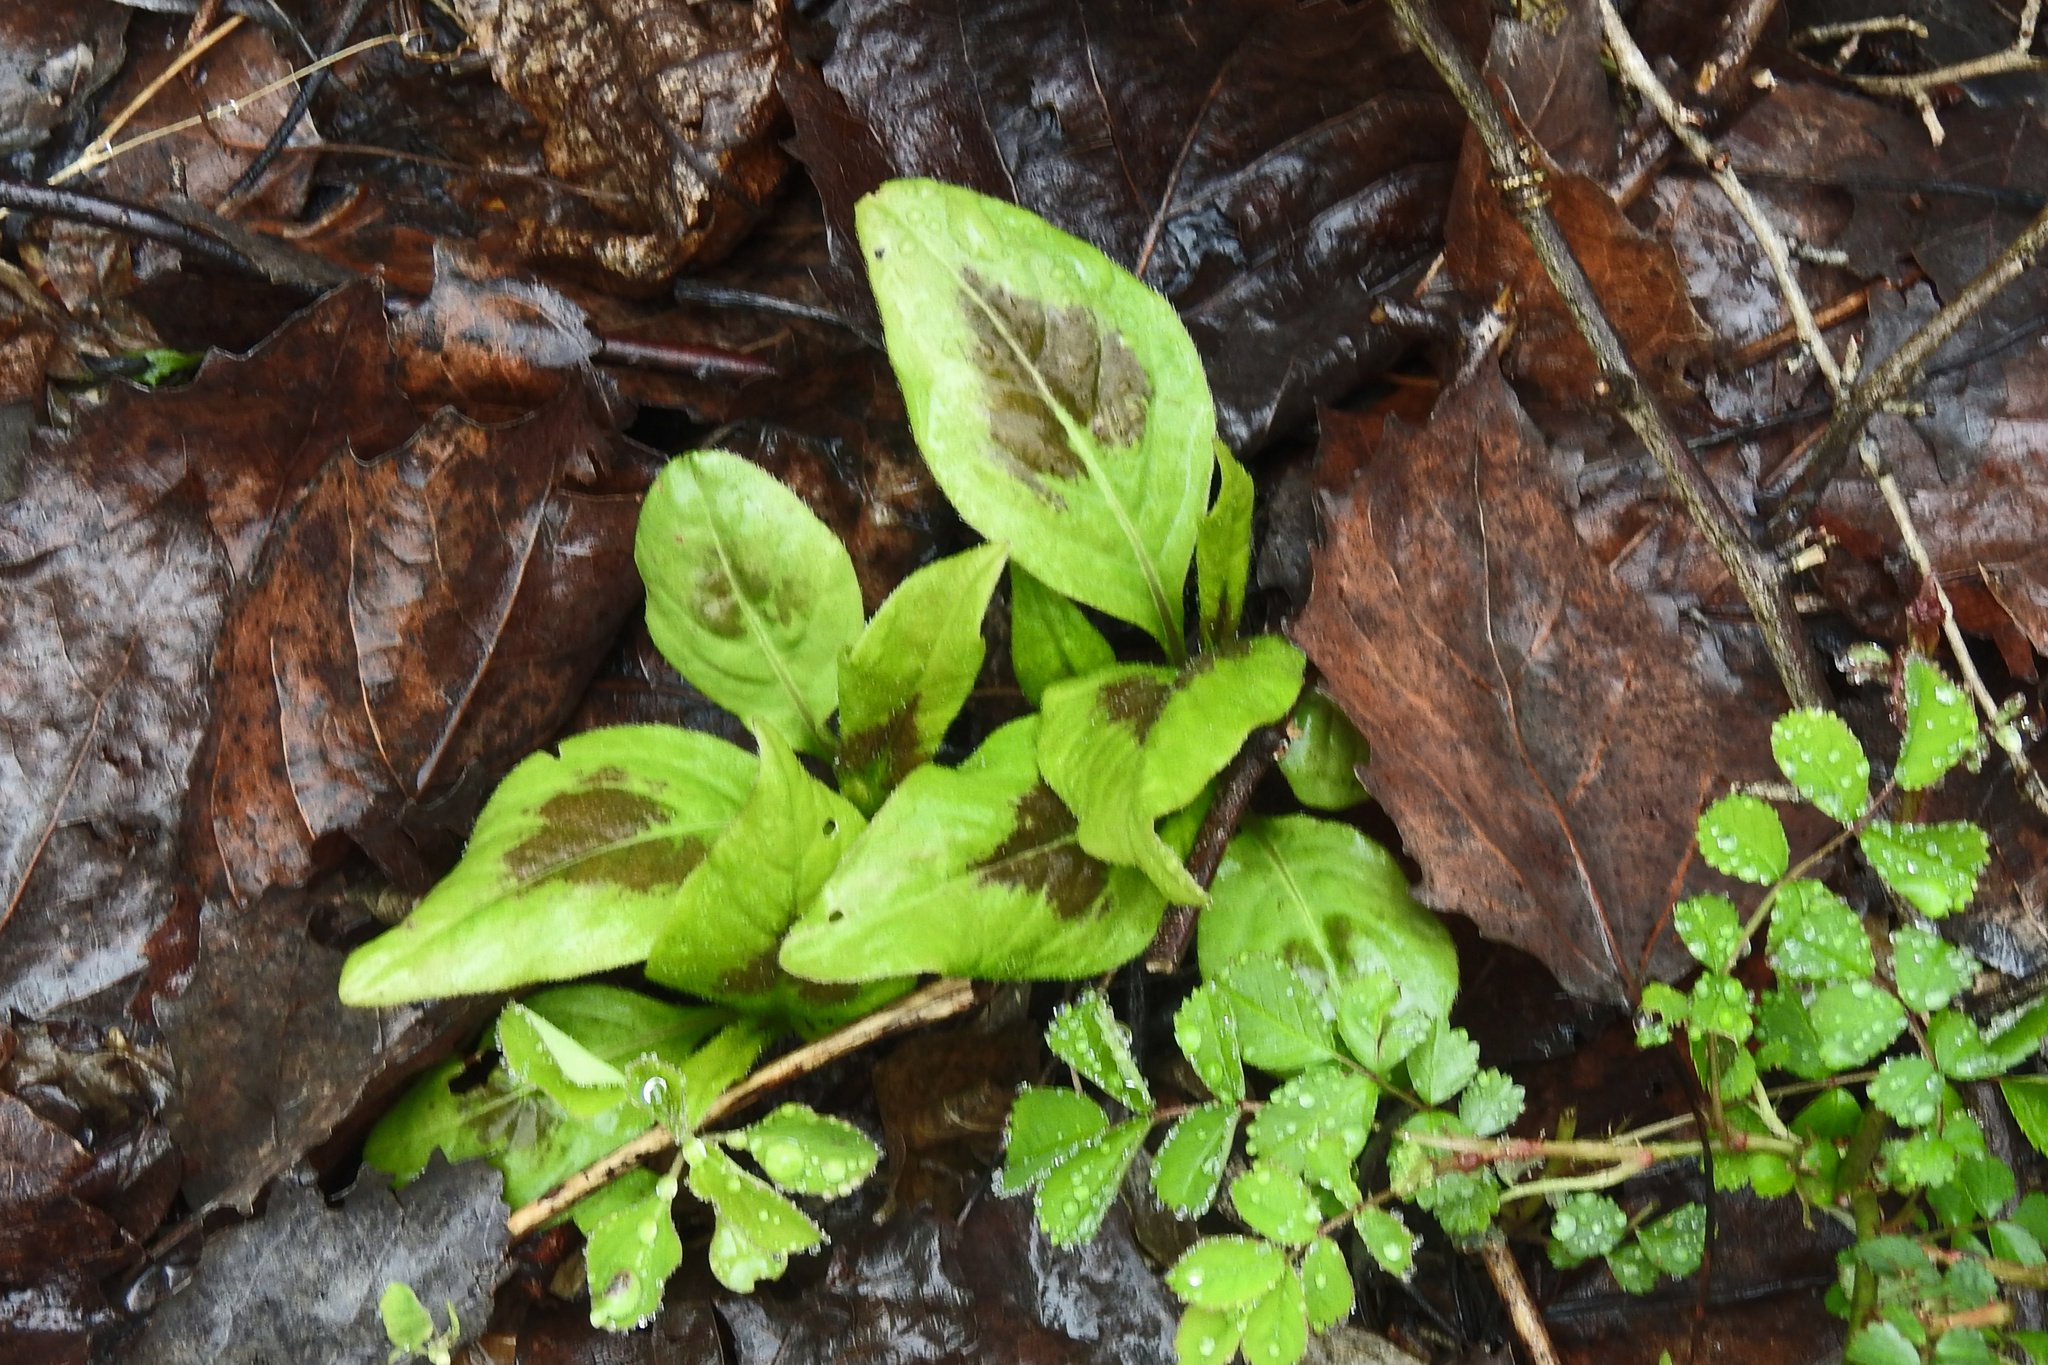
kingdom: Plantae
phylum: Tracheophyta
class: Magnoliopsida
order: Caryophyllales
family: Polygonaceae
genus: Persicaria
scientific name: Persicaria virginiana
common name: Jumpseed
